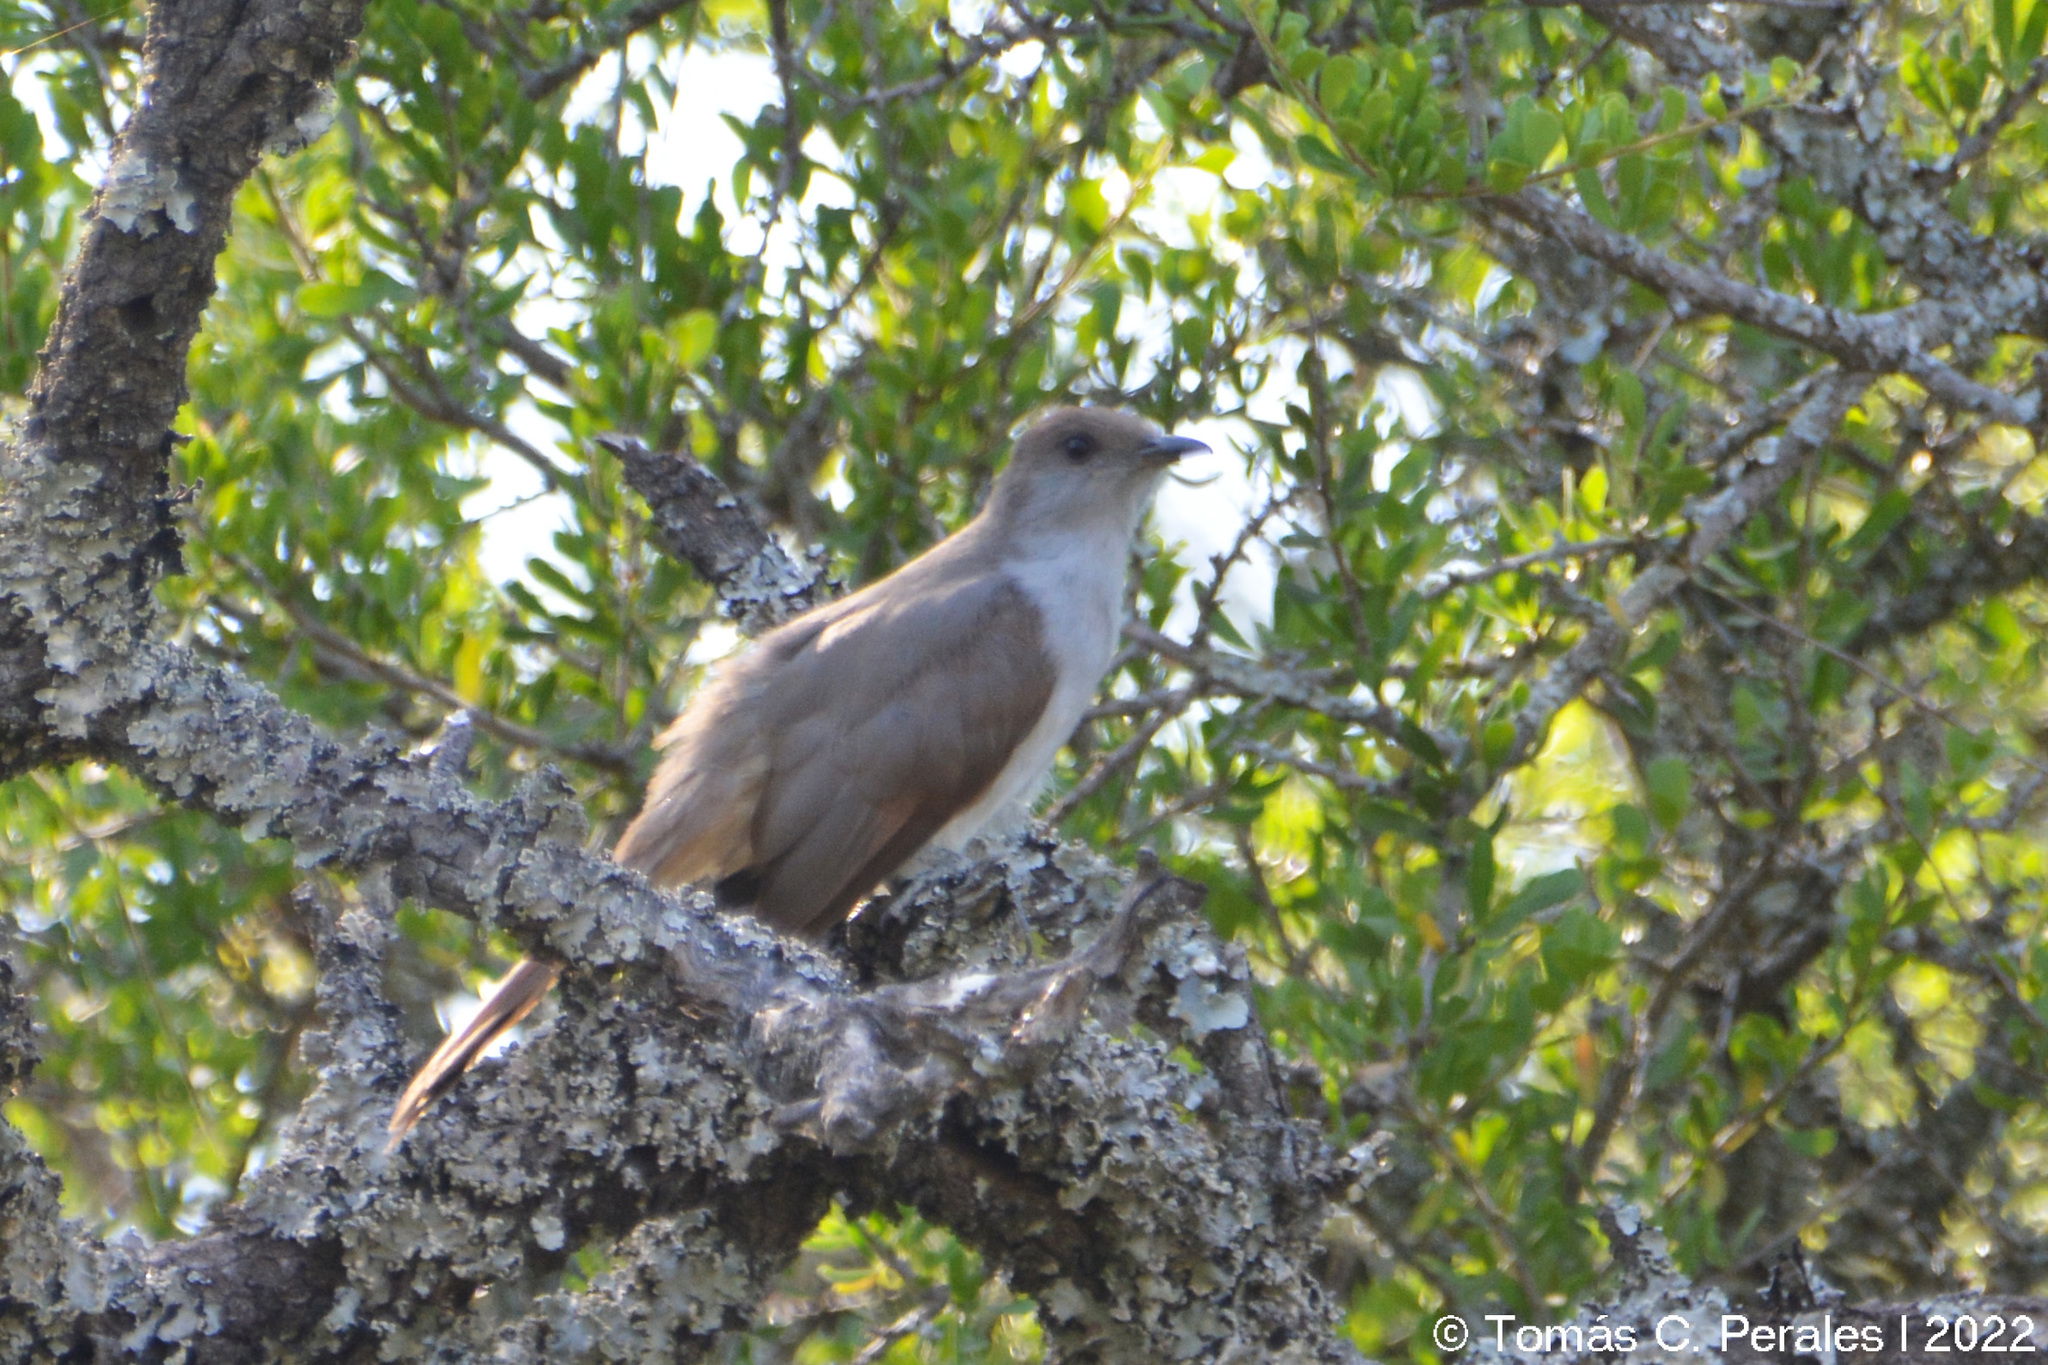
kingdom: Animalia
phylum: Chordata
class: Aves
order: Cuculiformes
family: Cuculidae
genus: Coccyzus
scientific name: Coccyzus cinereus
